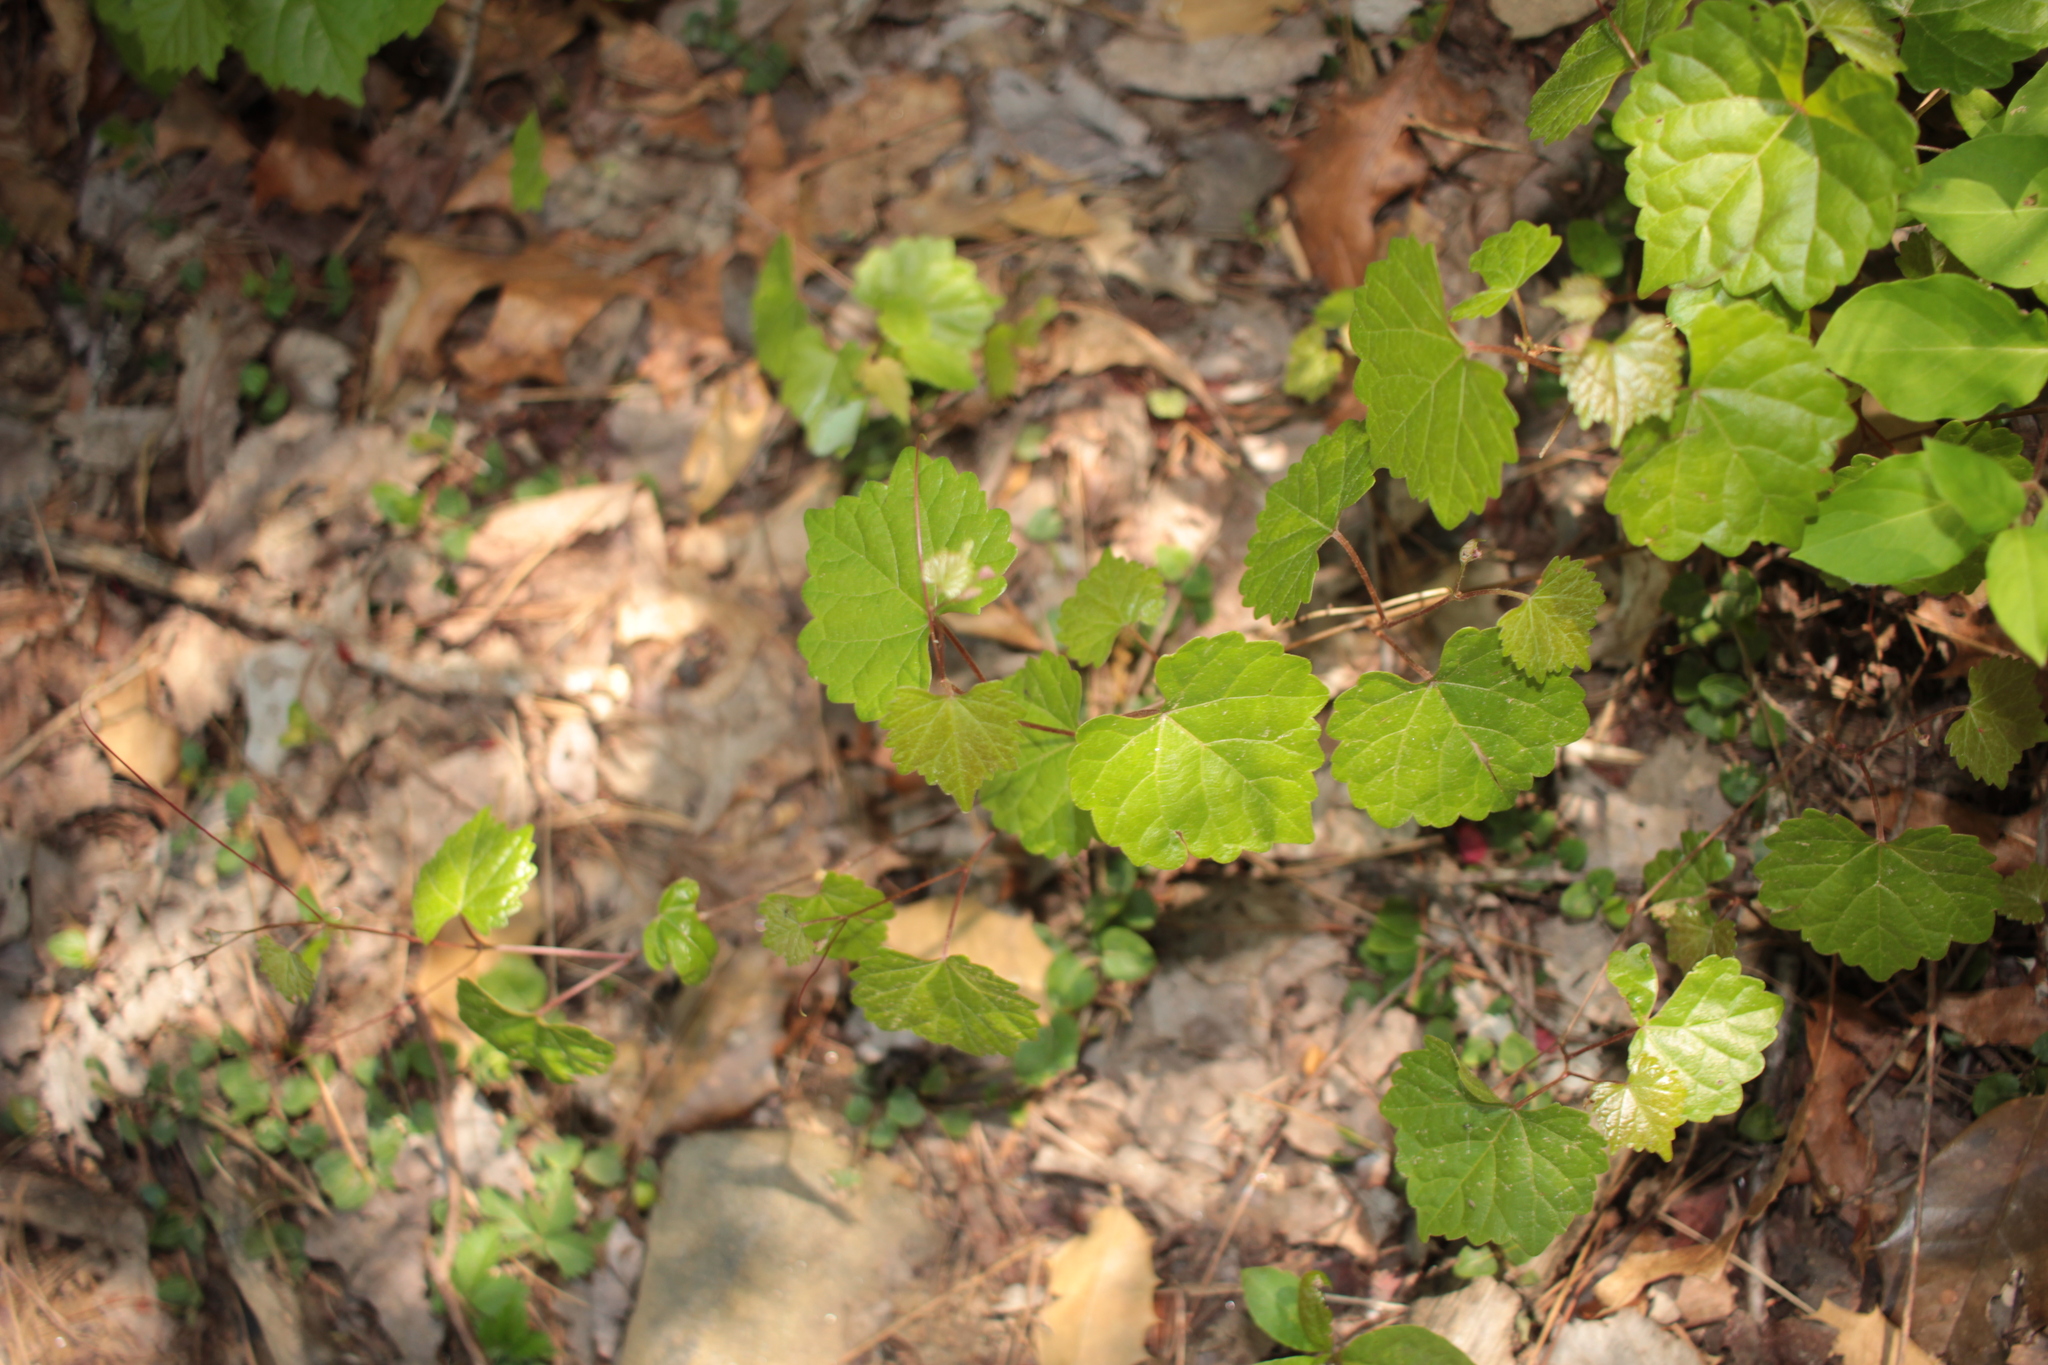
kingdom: Plantae
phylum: Tracheophyta
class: Magnoliopsida
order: Vitales
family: Vitaceae
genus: Vitis
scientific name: Vitis rotundifolia
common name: Muscadine grape
